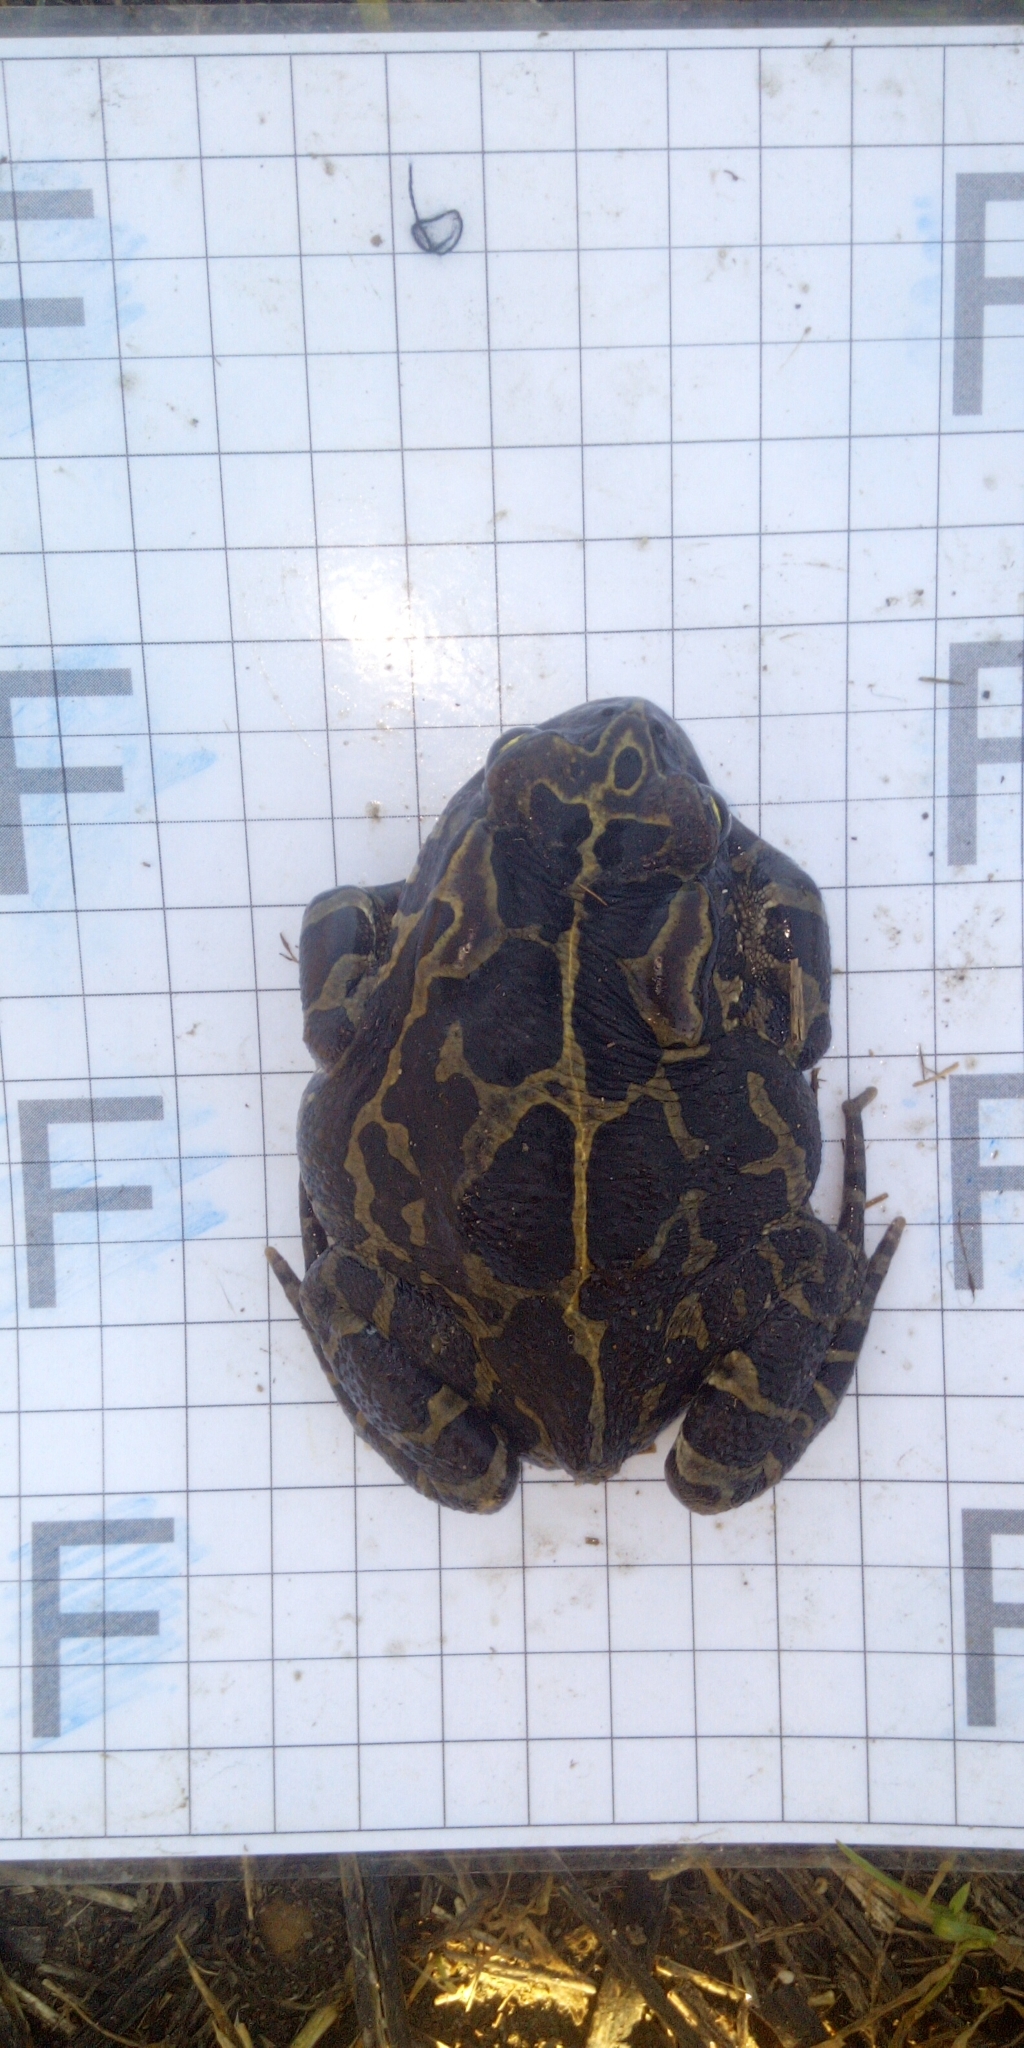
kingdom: Animalia
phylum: Chordata
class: Amphibia
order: Anura
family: Bufonidae
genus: Sclerophrys
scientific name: Sclerophrys pantherina
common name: Panther toad
